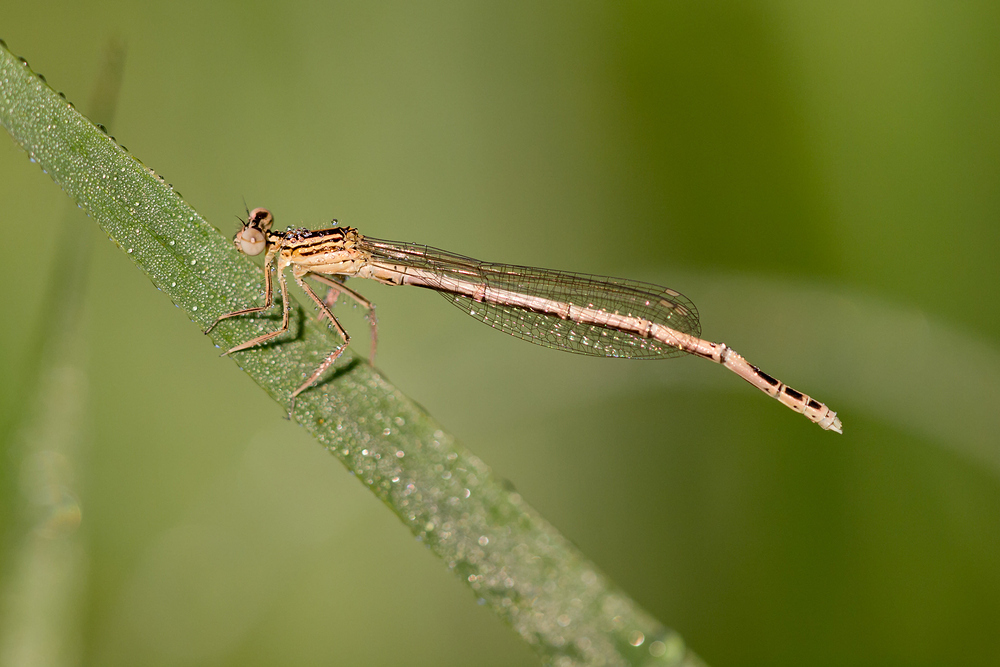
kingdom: Animalia
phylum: Arthropoda
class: Insecta
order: Odonata
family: Platycnemididae
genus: Platycnemis
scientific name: Platycnemis pennipes
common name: White-legged damselfly
